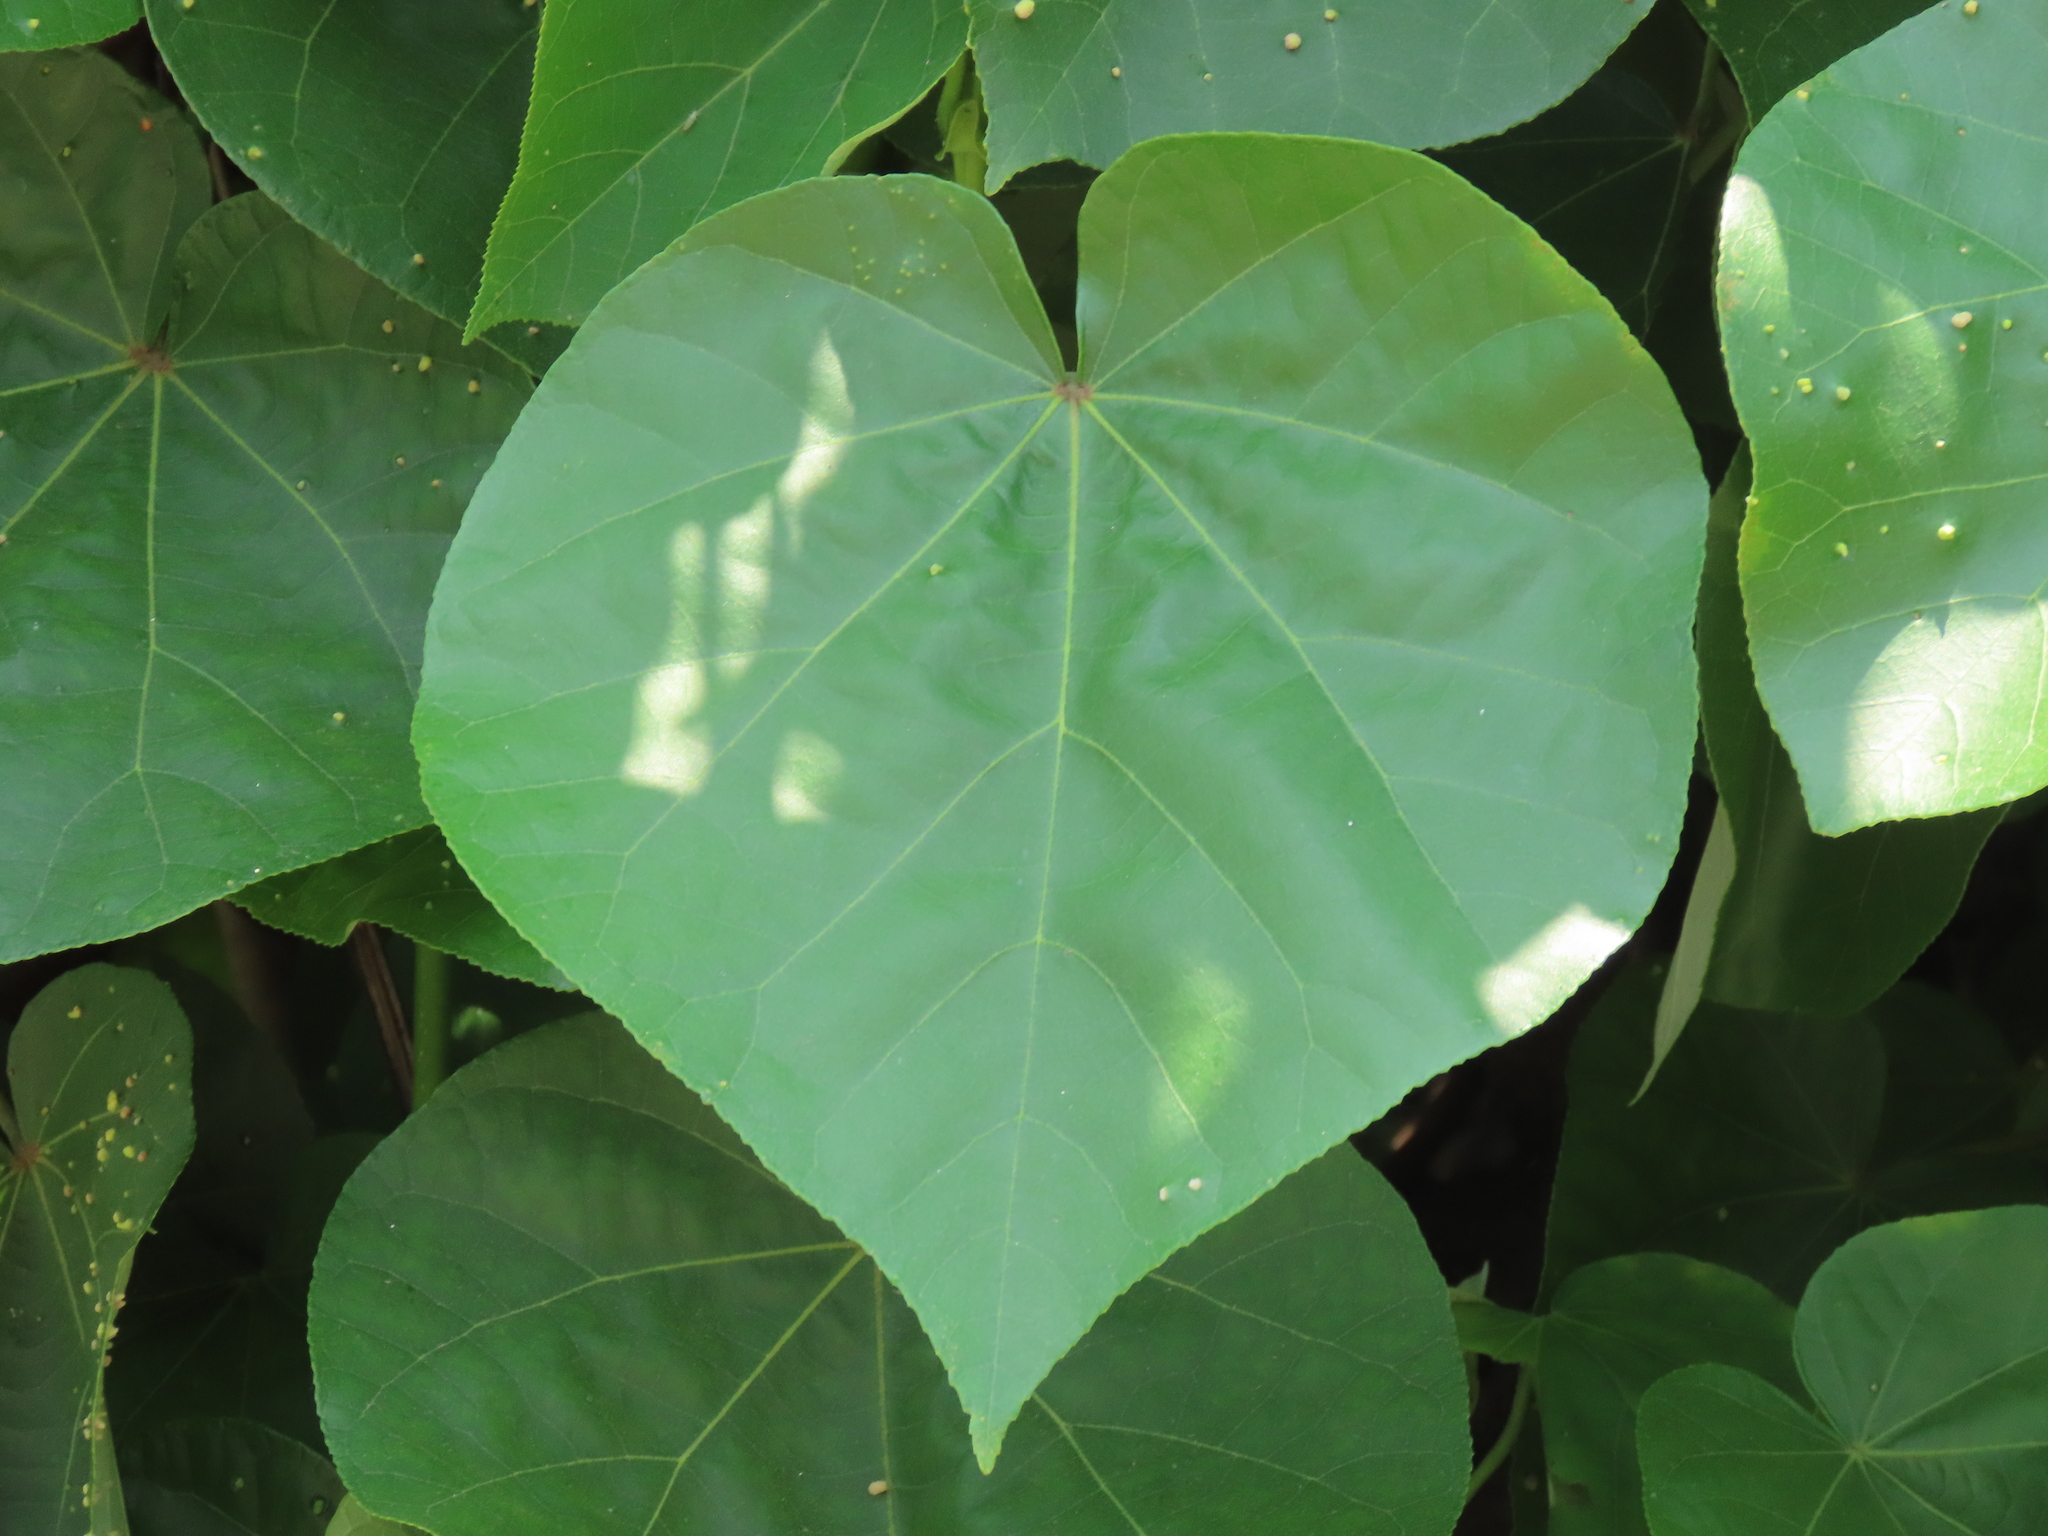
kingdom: Plantae
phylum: Tracheophyta
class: Magnoliopsida
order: Malvales
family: Malvaceae
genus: Talipariti
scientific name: Talipariti tiliaceum
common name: Sea hibiscus
